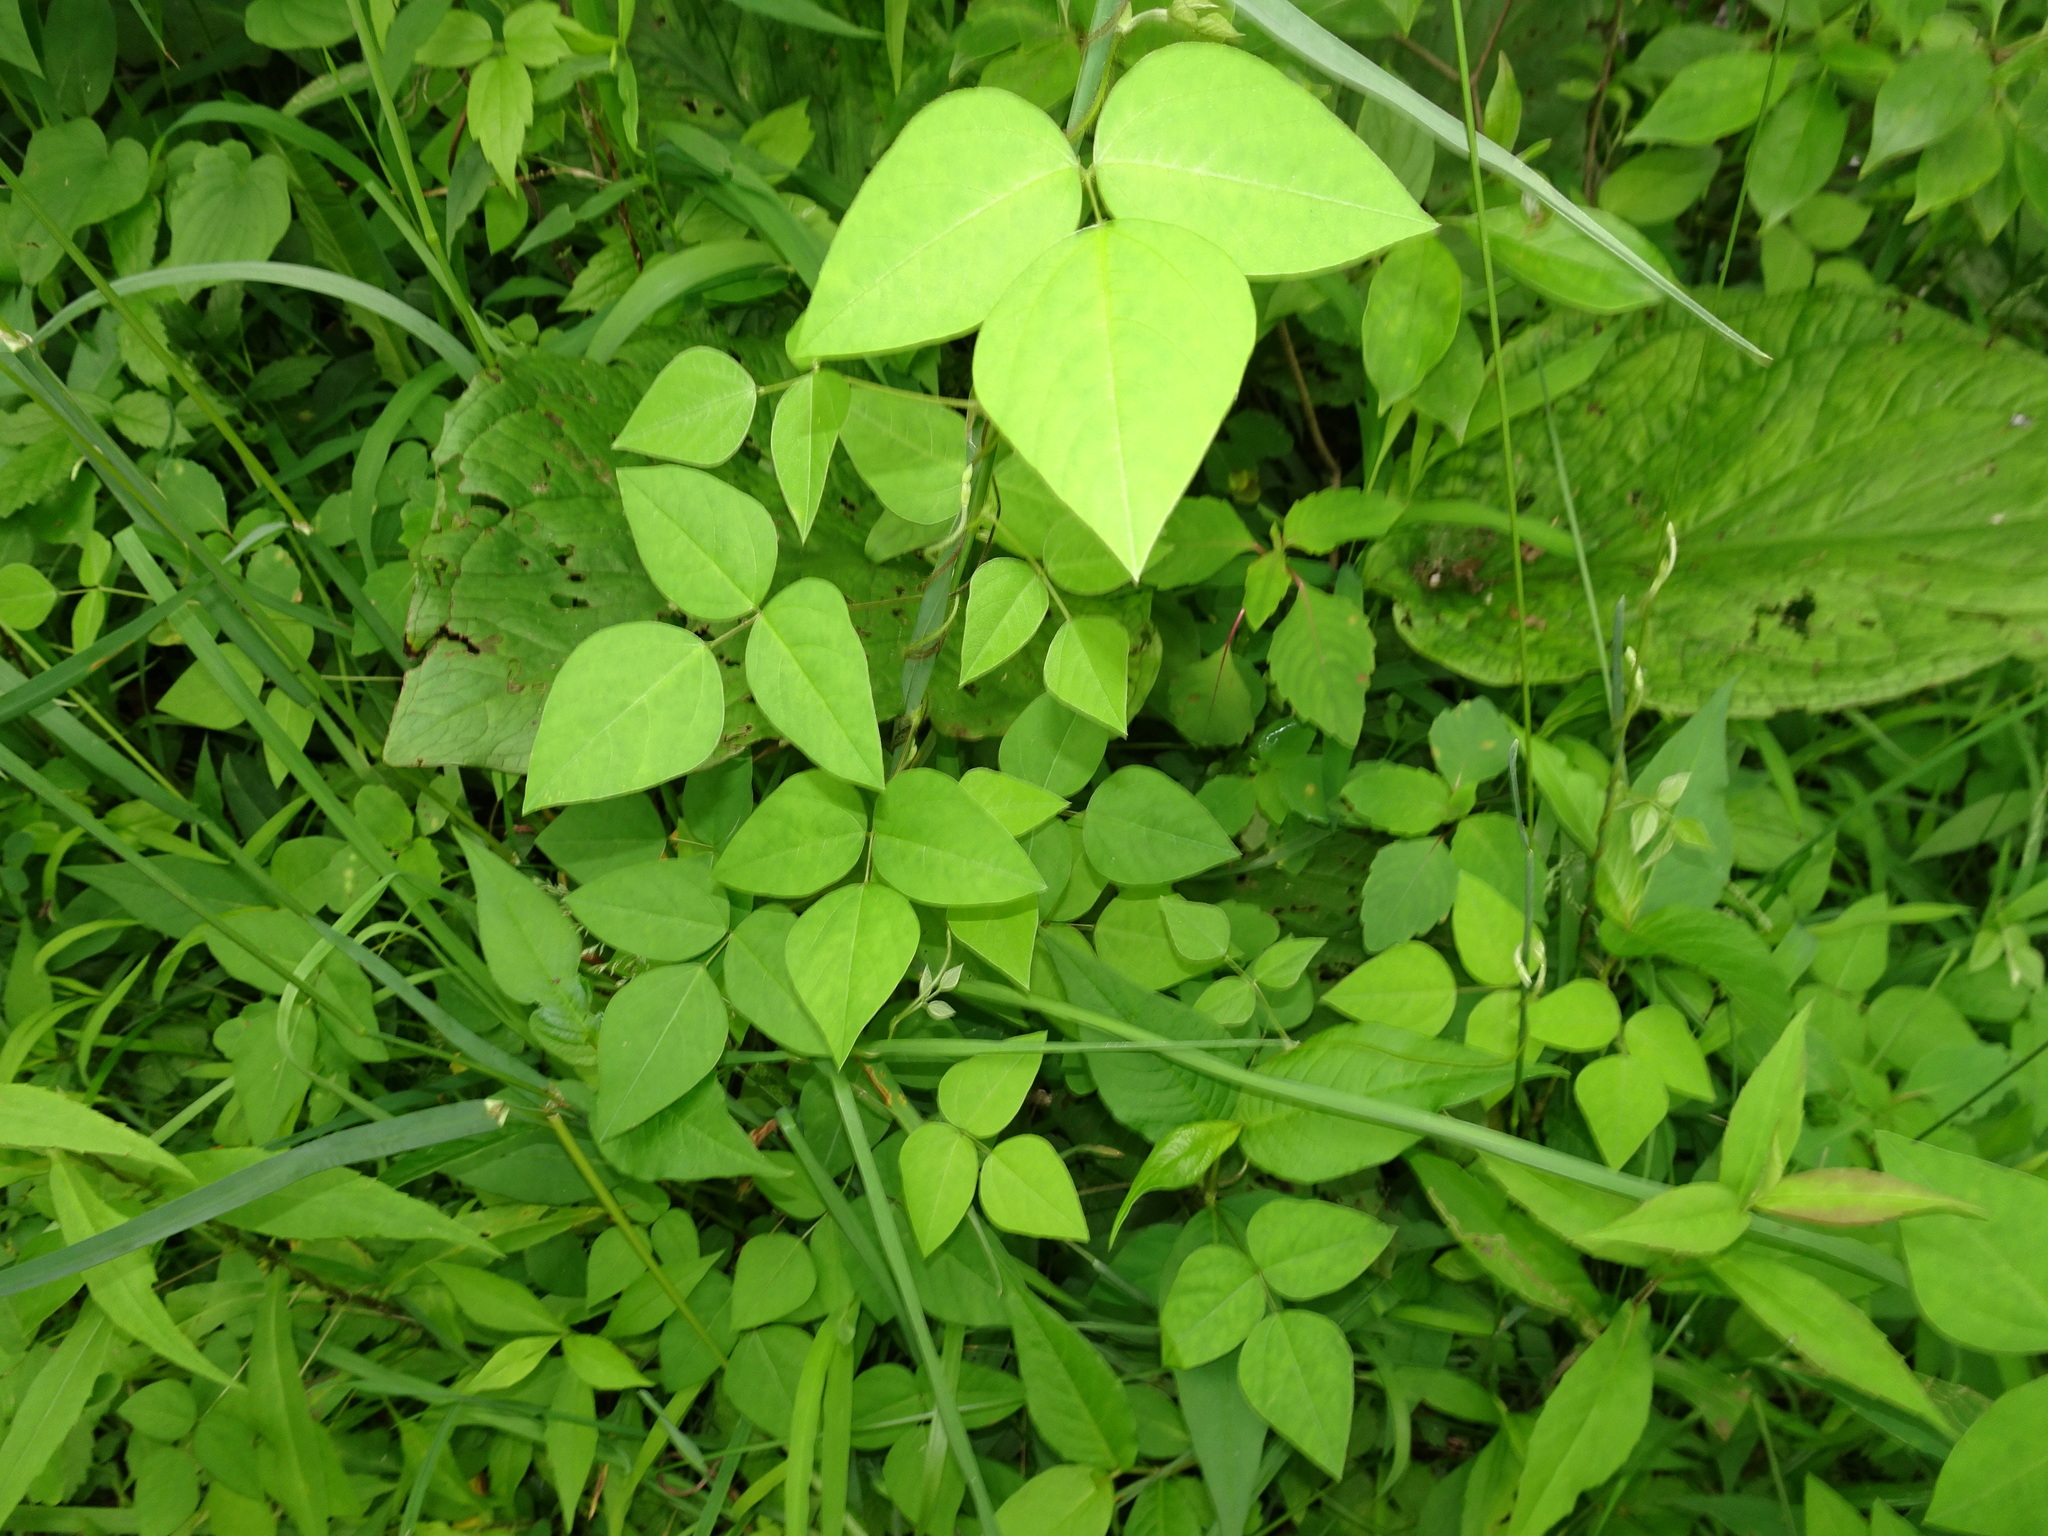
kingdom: Plantae
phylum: Tracheophyta
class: Magnoliopsida
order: Fabales
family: Fabaceae
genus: Amphicarpaea
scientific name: Amphicarpaea bracteata
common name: American hog peanut
